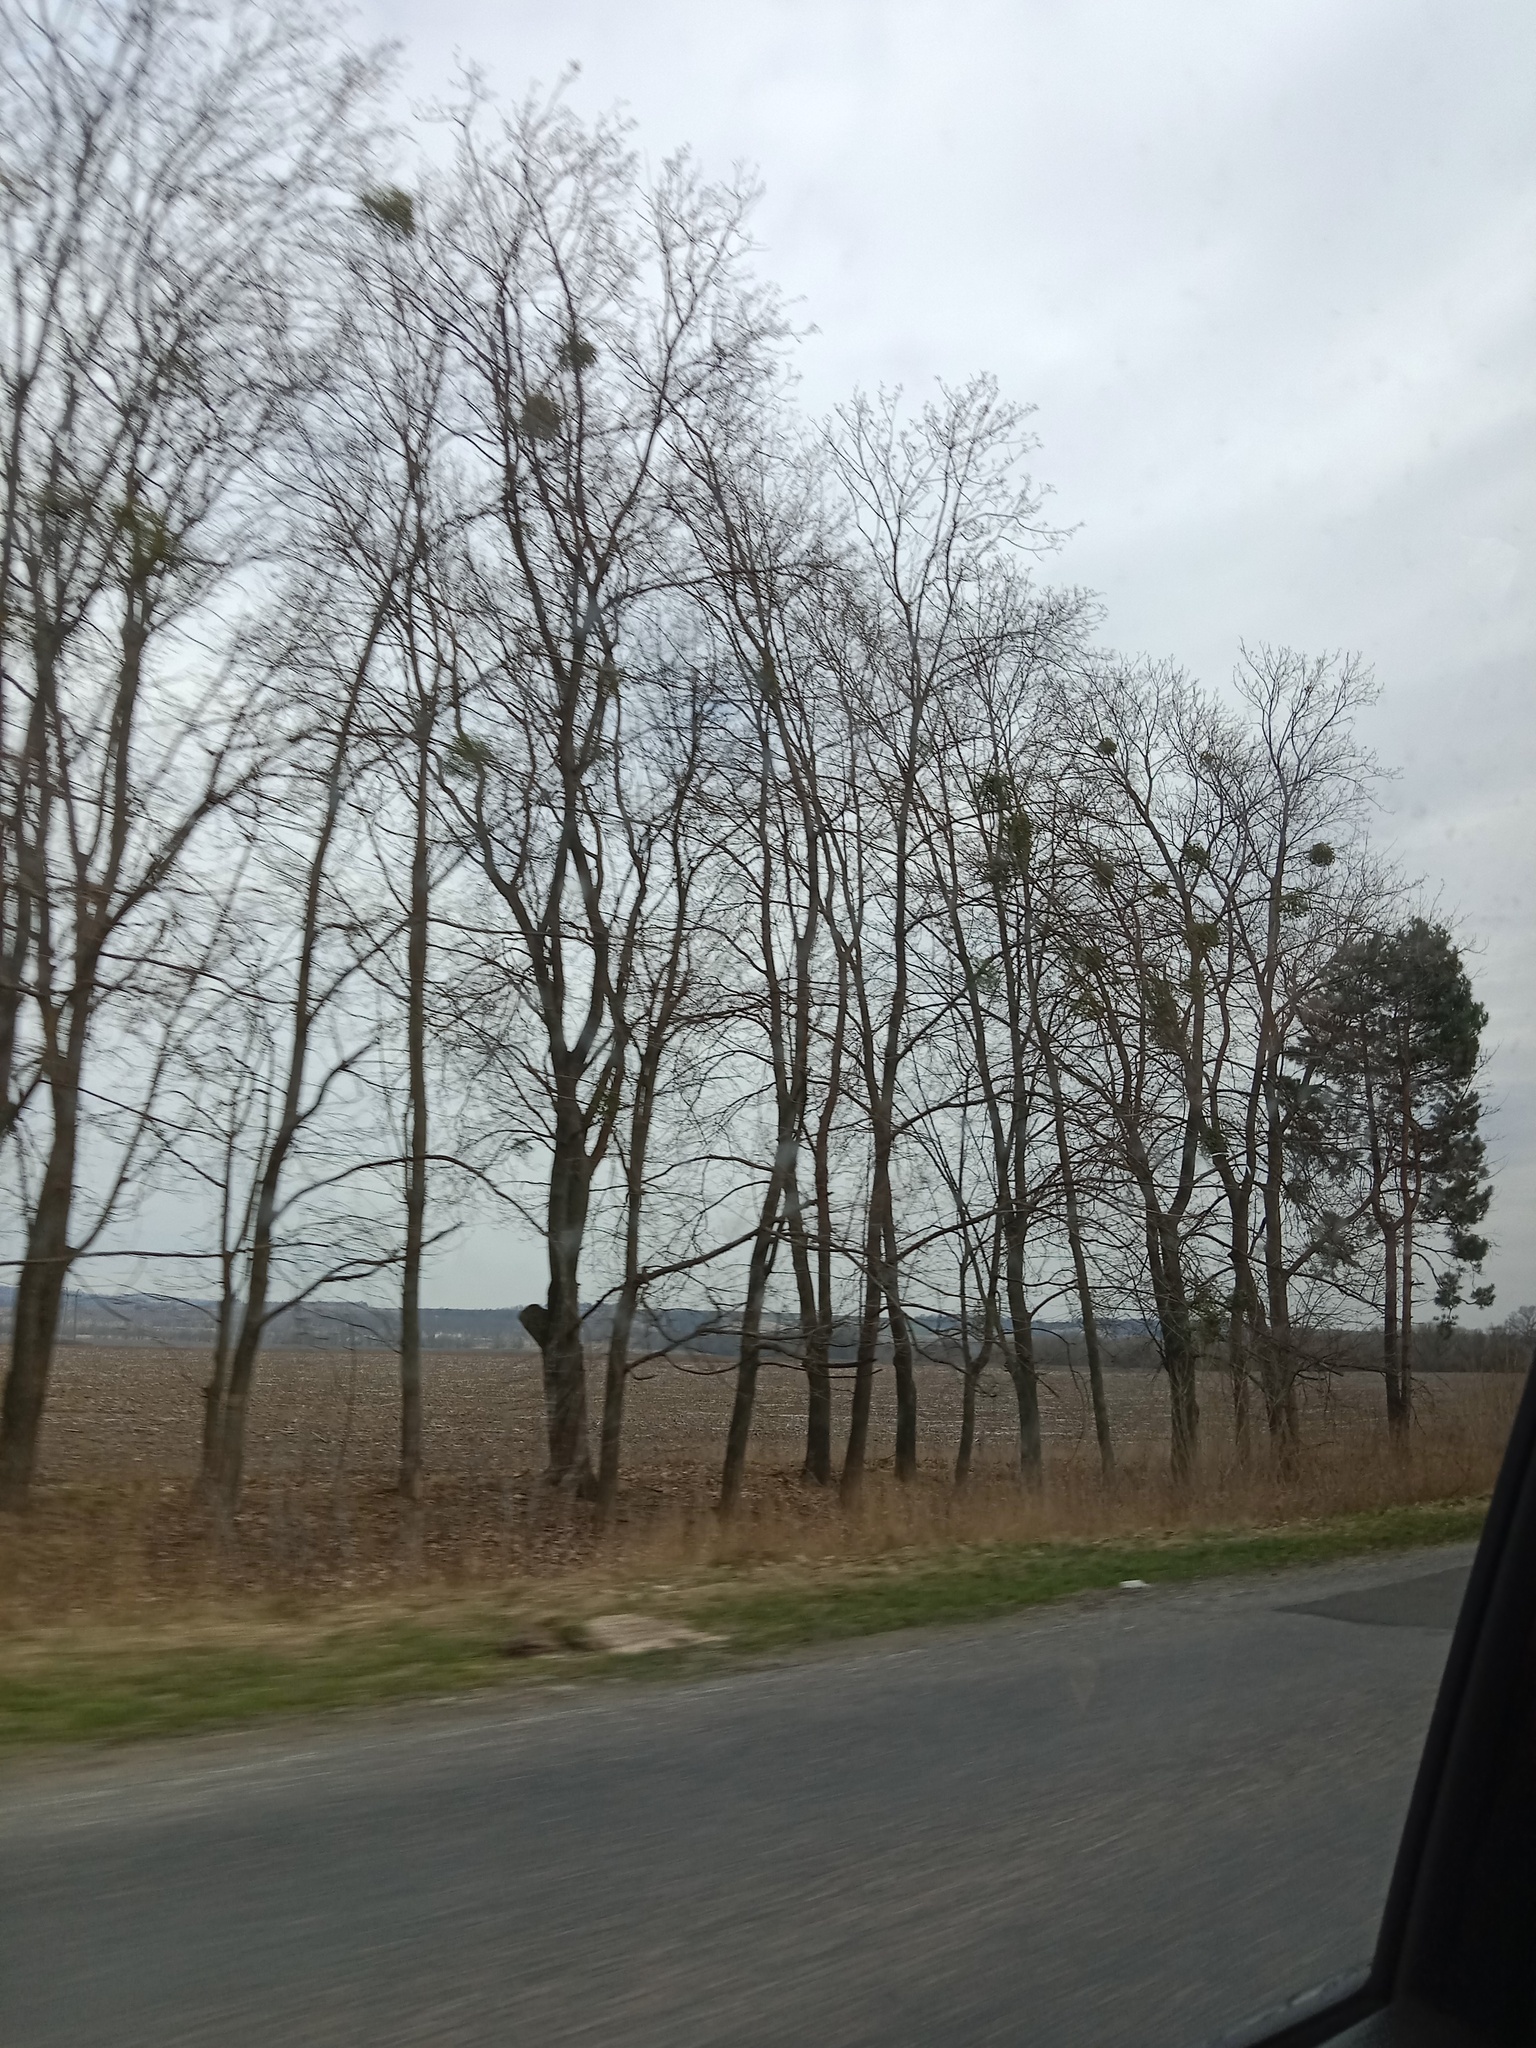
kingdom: Plantae
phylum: Tracheophyta
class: Magnoliopsida
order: Santalales
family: Viscaceae
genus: Viscum
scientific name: Viscum album
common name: Mistletoe
